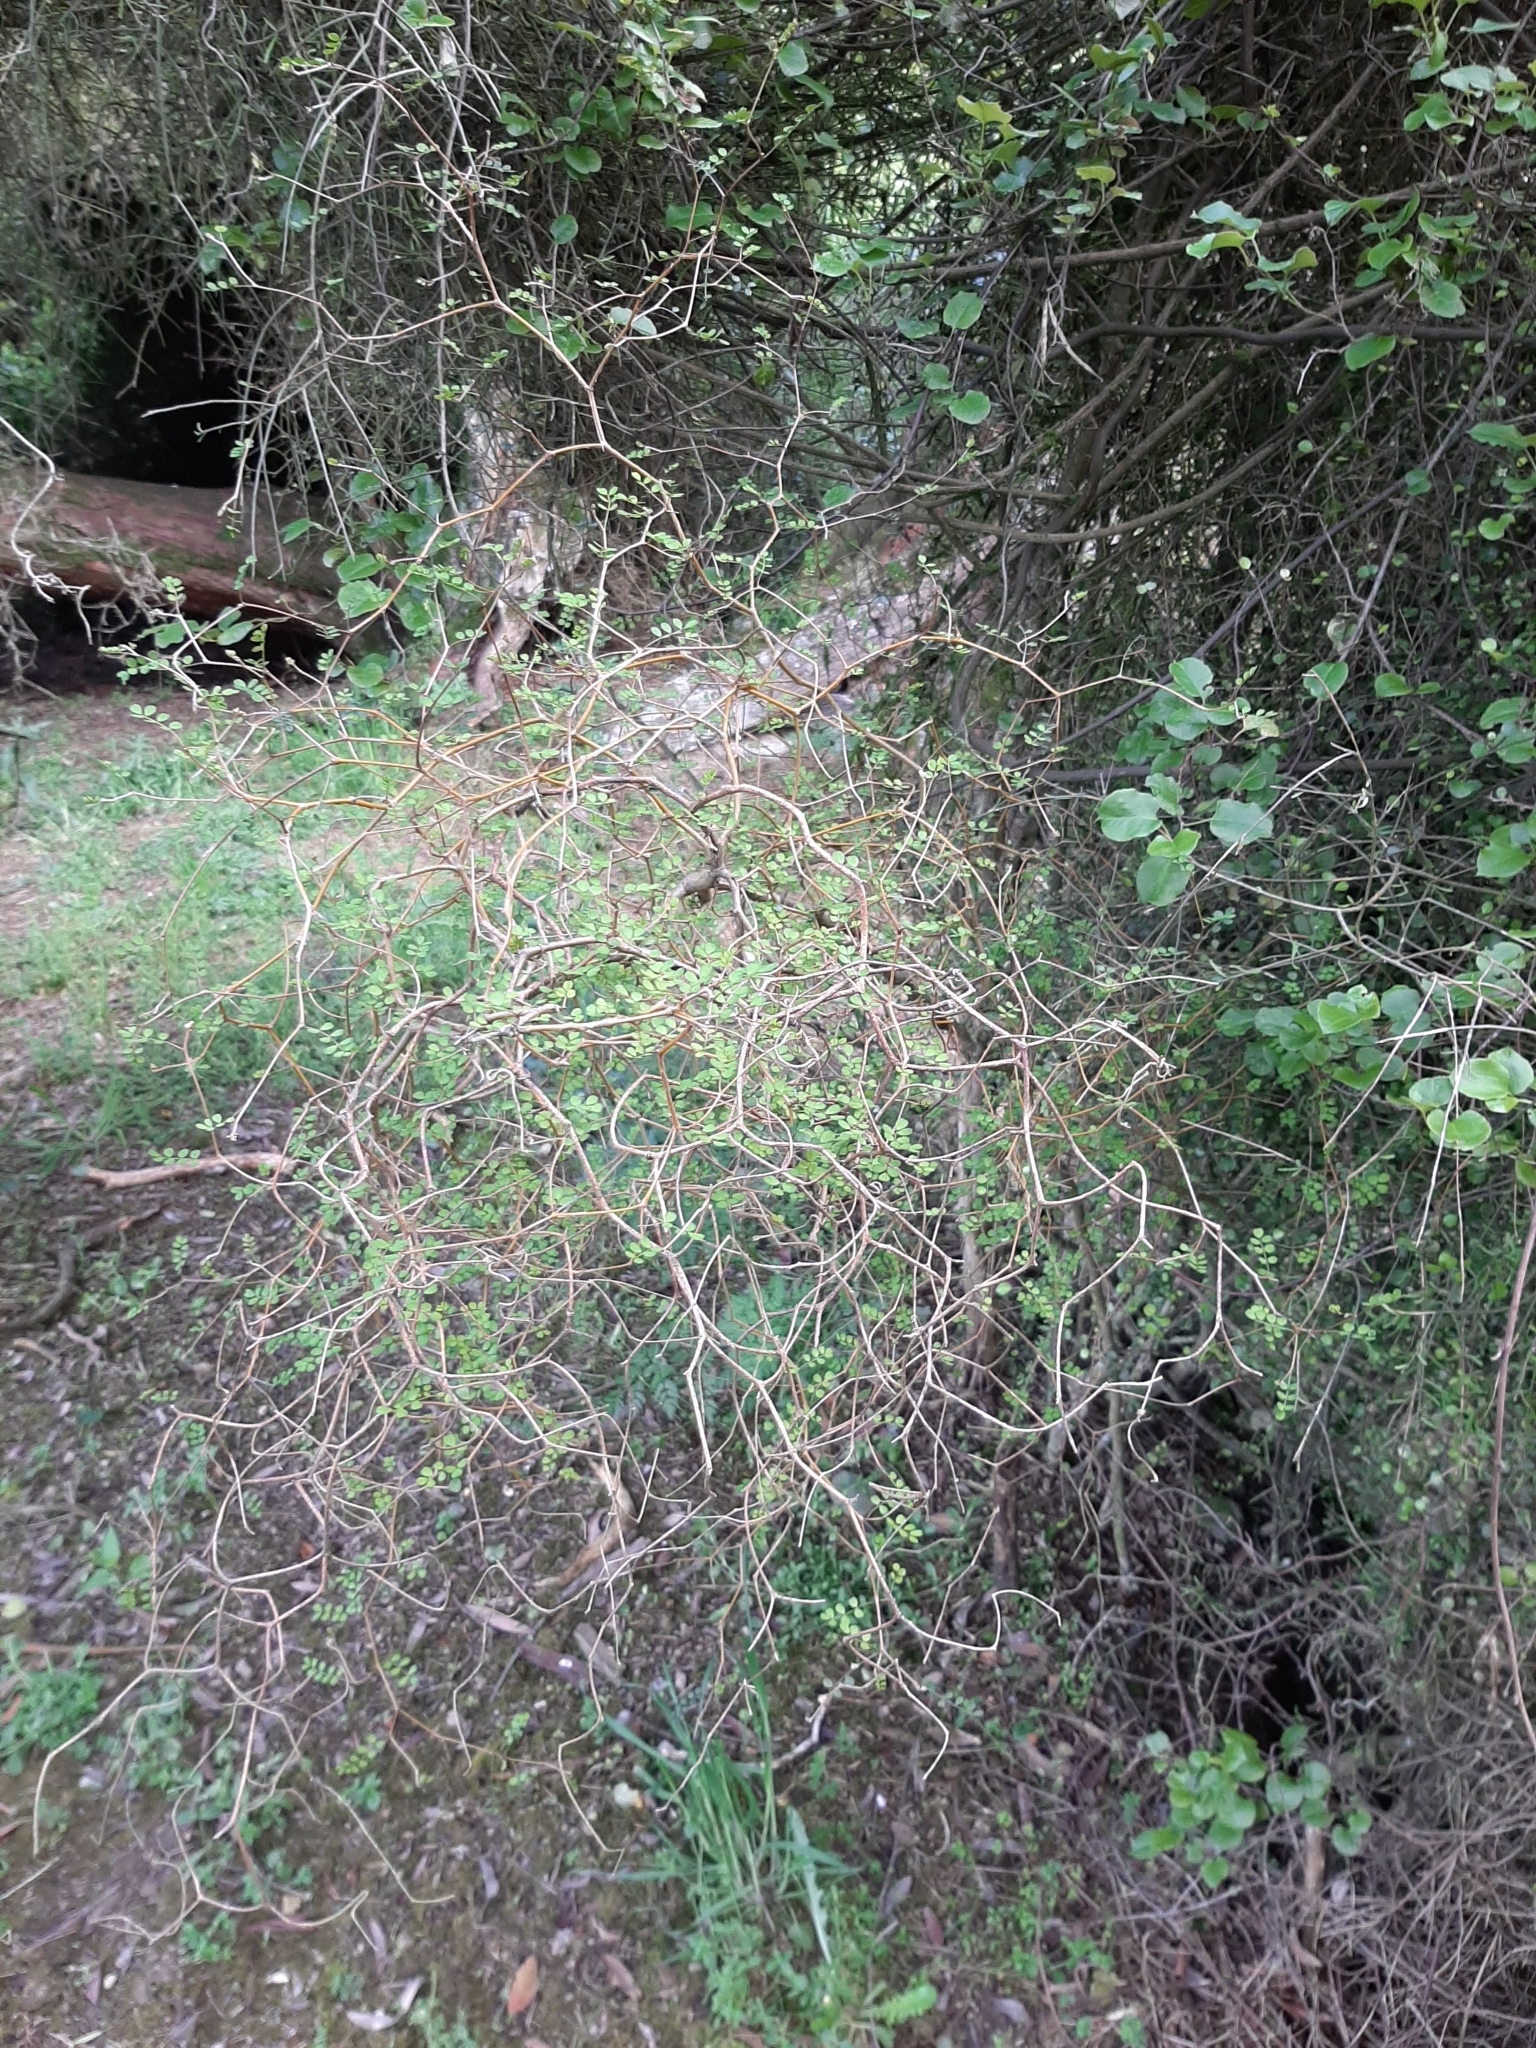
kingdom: Plantae
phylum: Tracheophyta
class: Magnoliopsida
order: Fabales
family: Fabaceae
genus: Sophora
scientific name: Sophora microphylla
